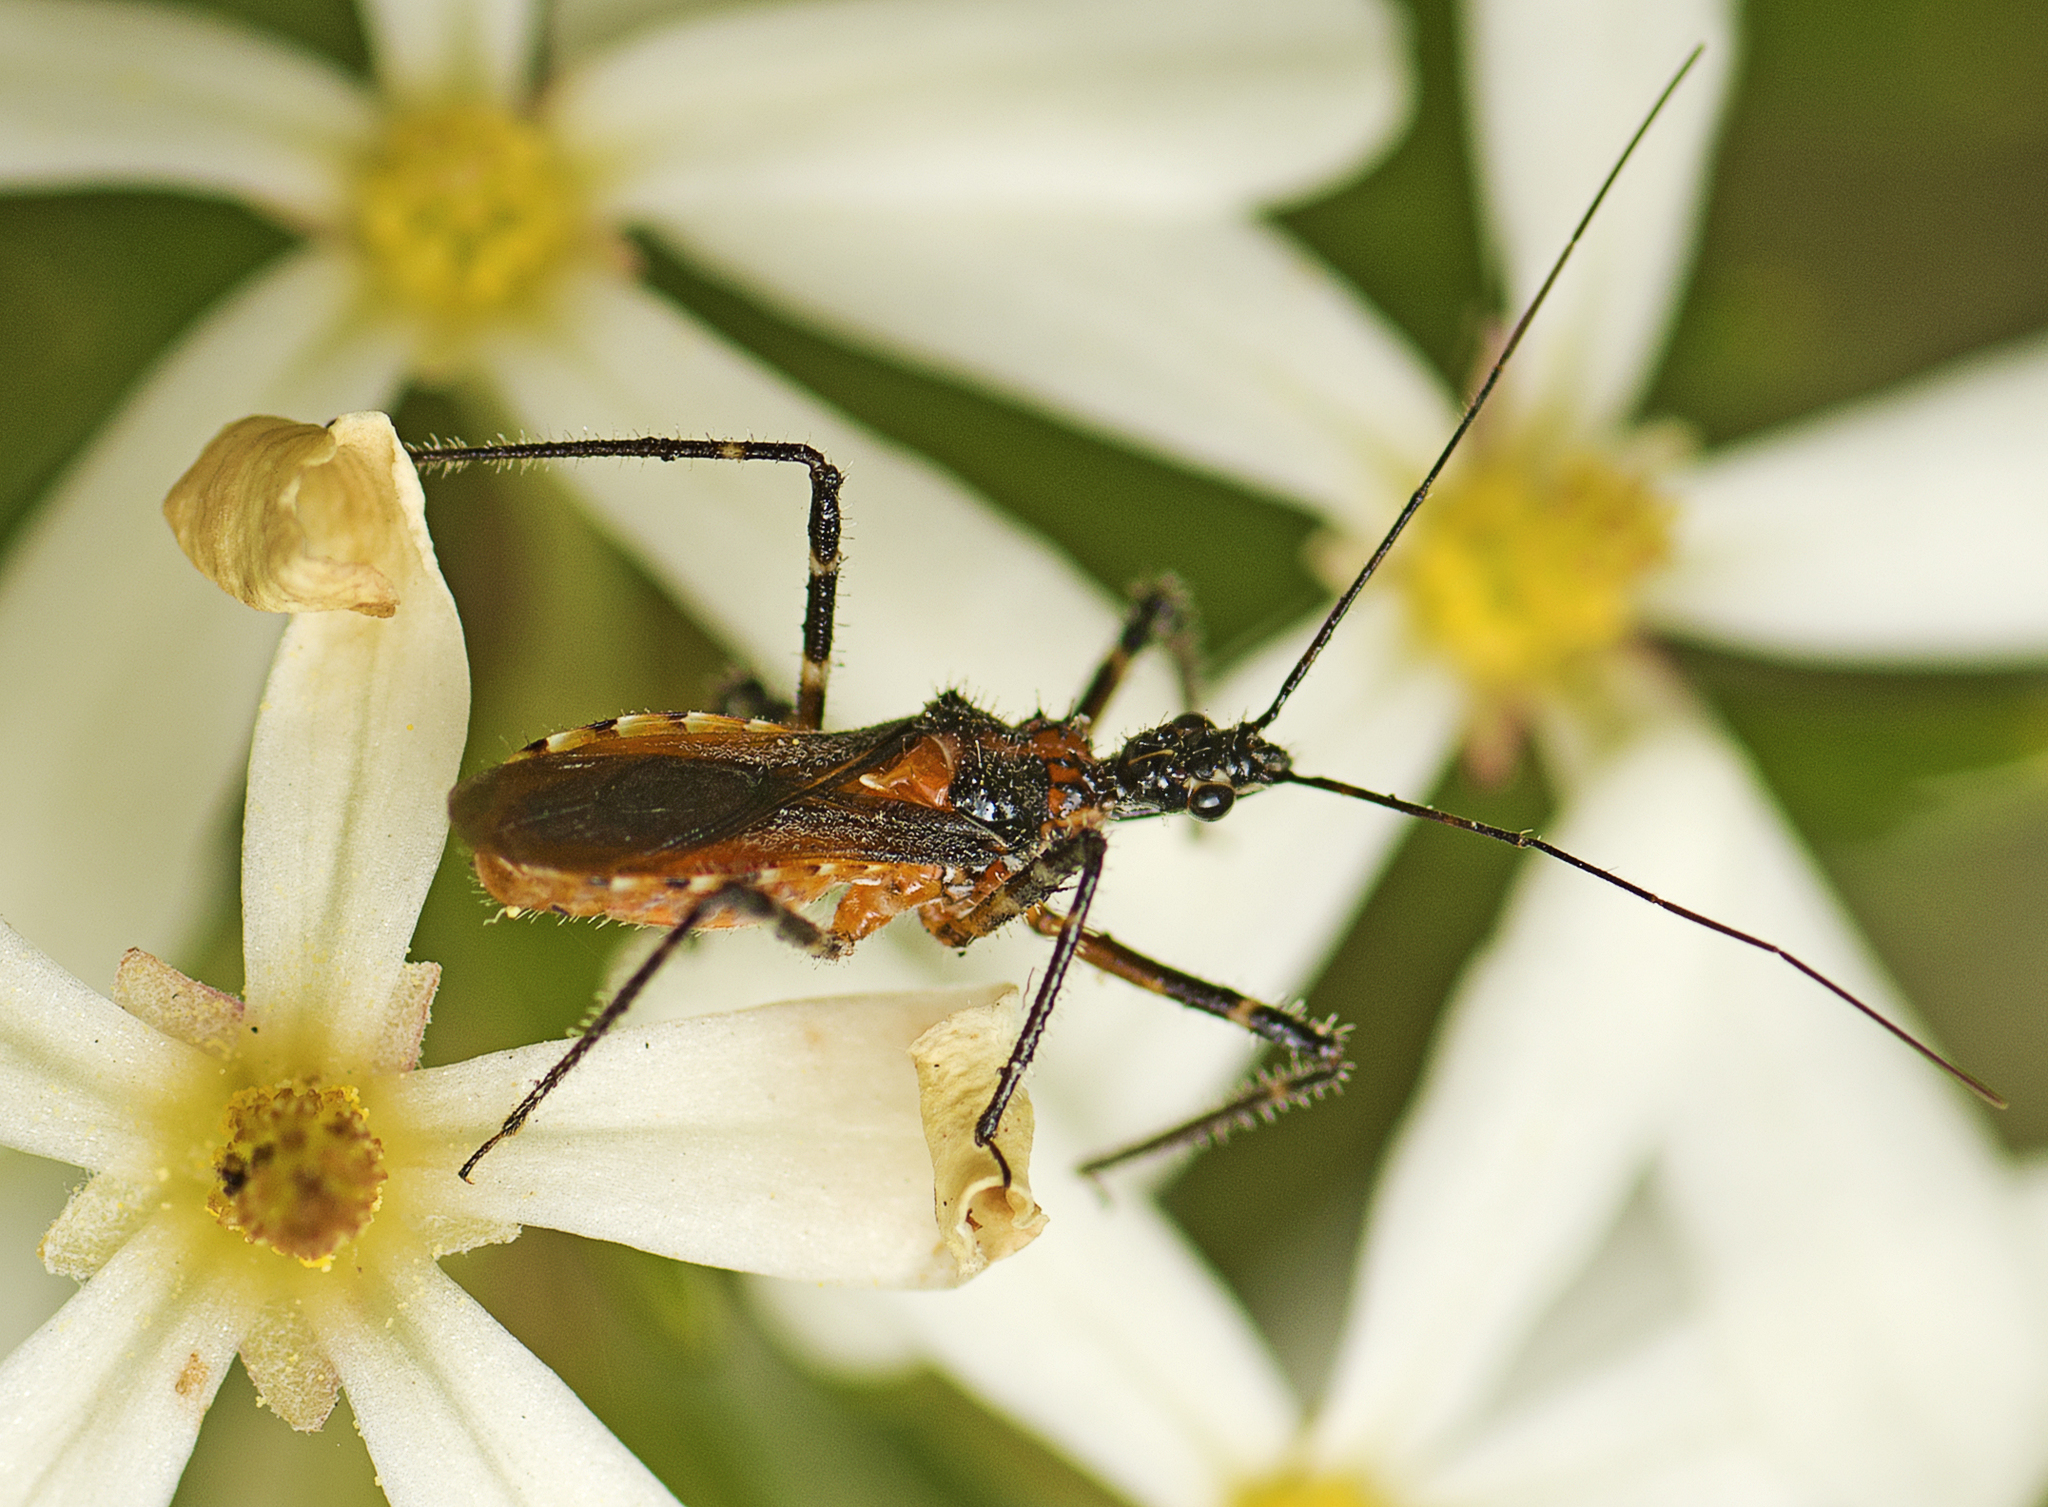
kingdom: Animalia
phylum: Arthropoda
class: Insecta
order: Hemiptera
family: Reduviidae
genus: Trachylestes
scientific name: Trachylestes aspericollis
